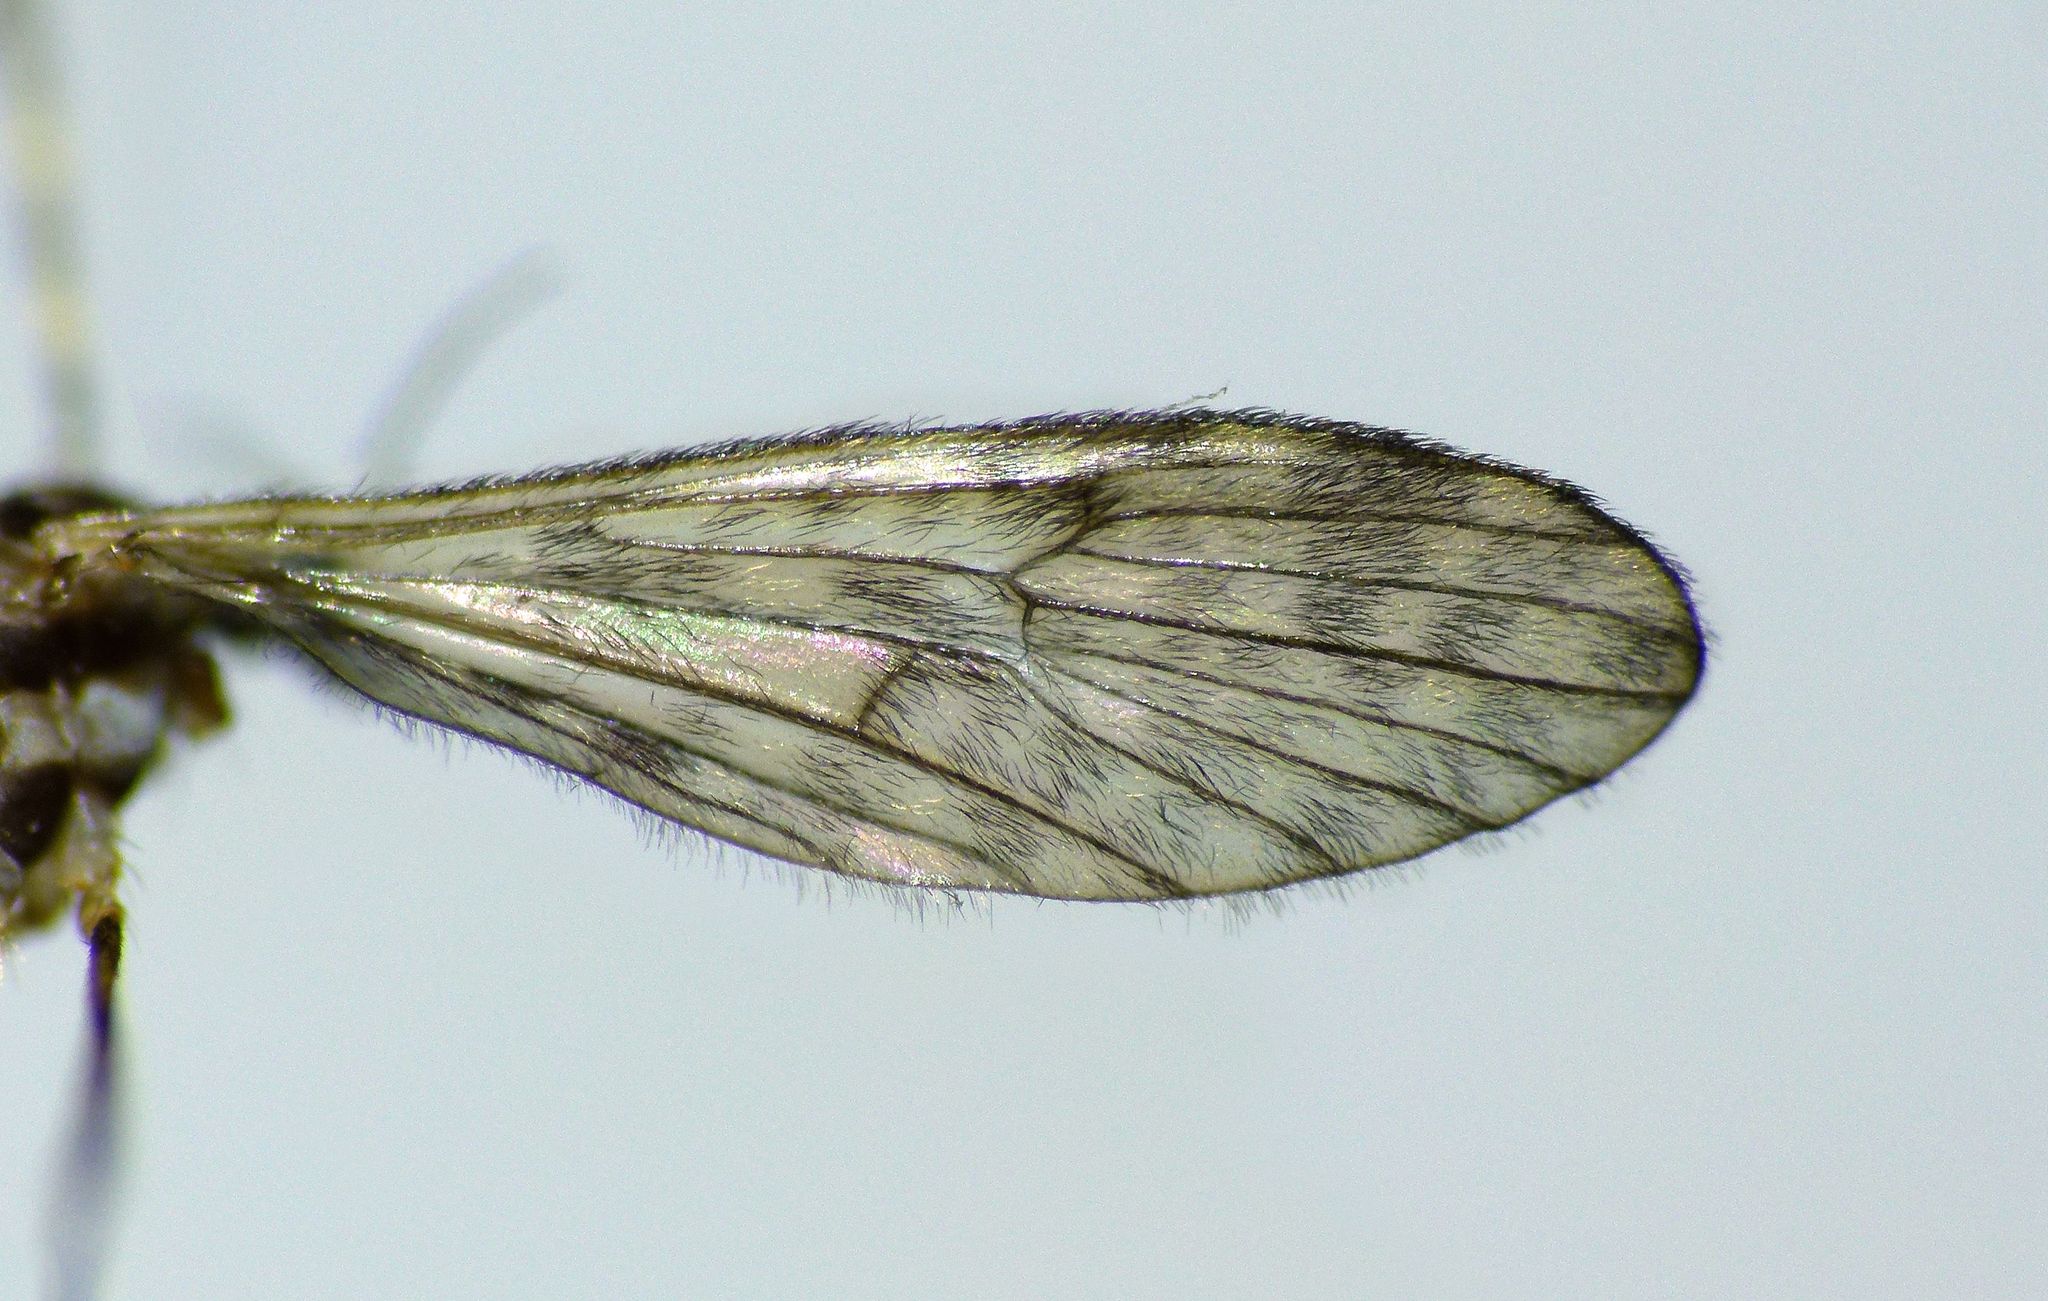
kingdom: Animalia
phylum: Arthropoda
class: Insecta
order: Diptera
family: Limoniidae
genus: Amphineurus
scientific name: Amphineurus bicinctus
